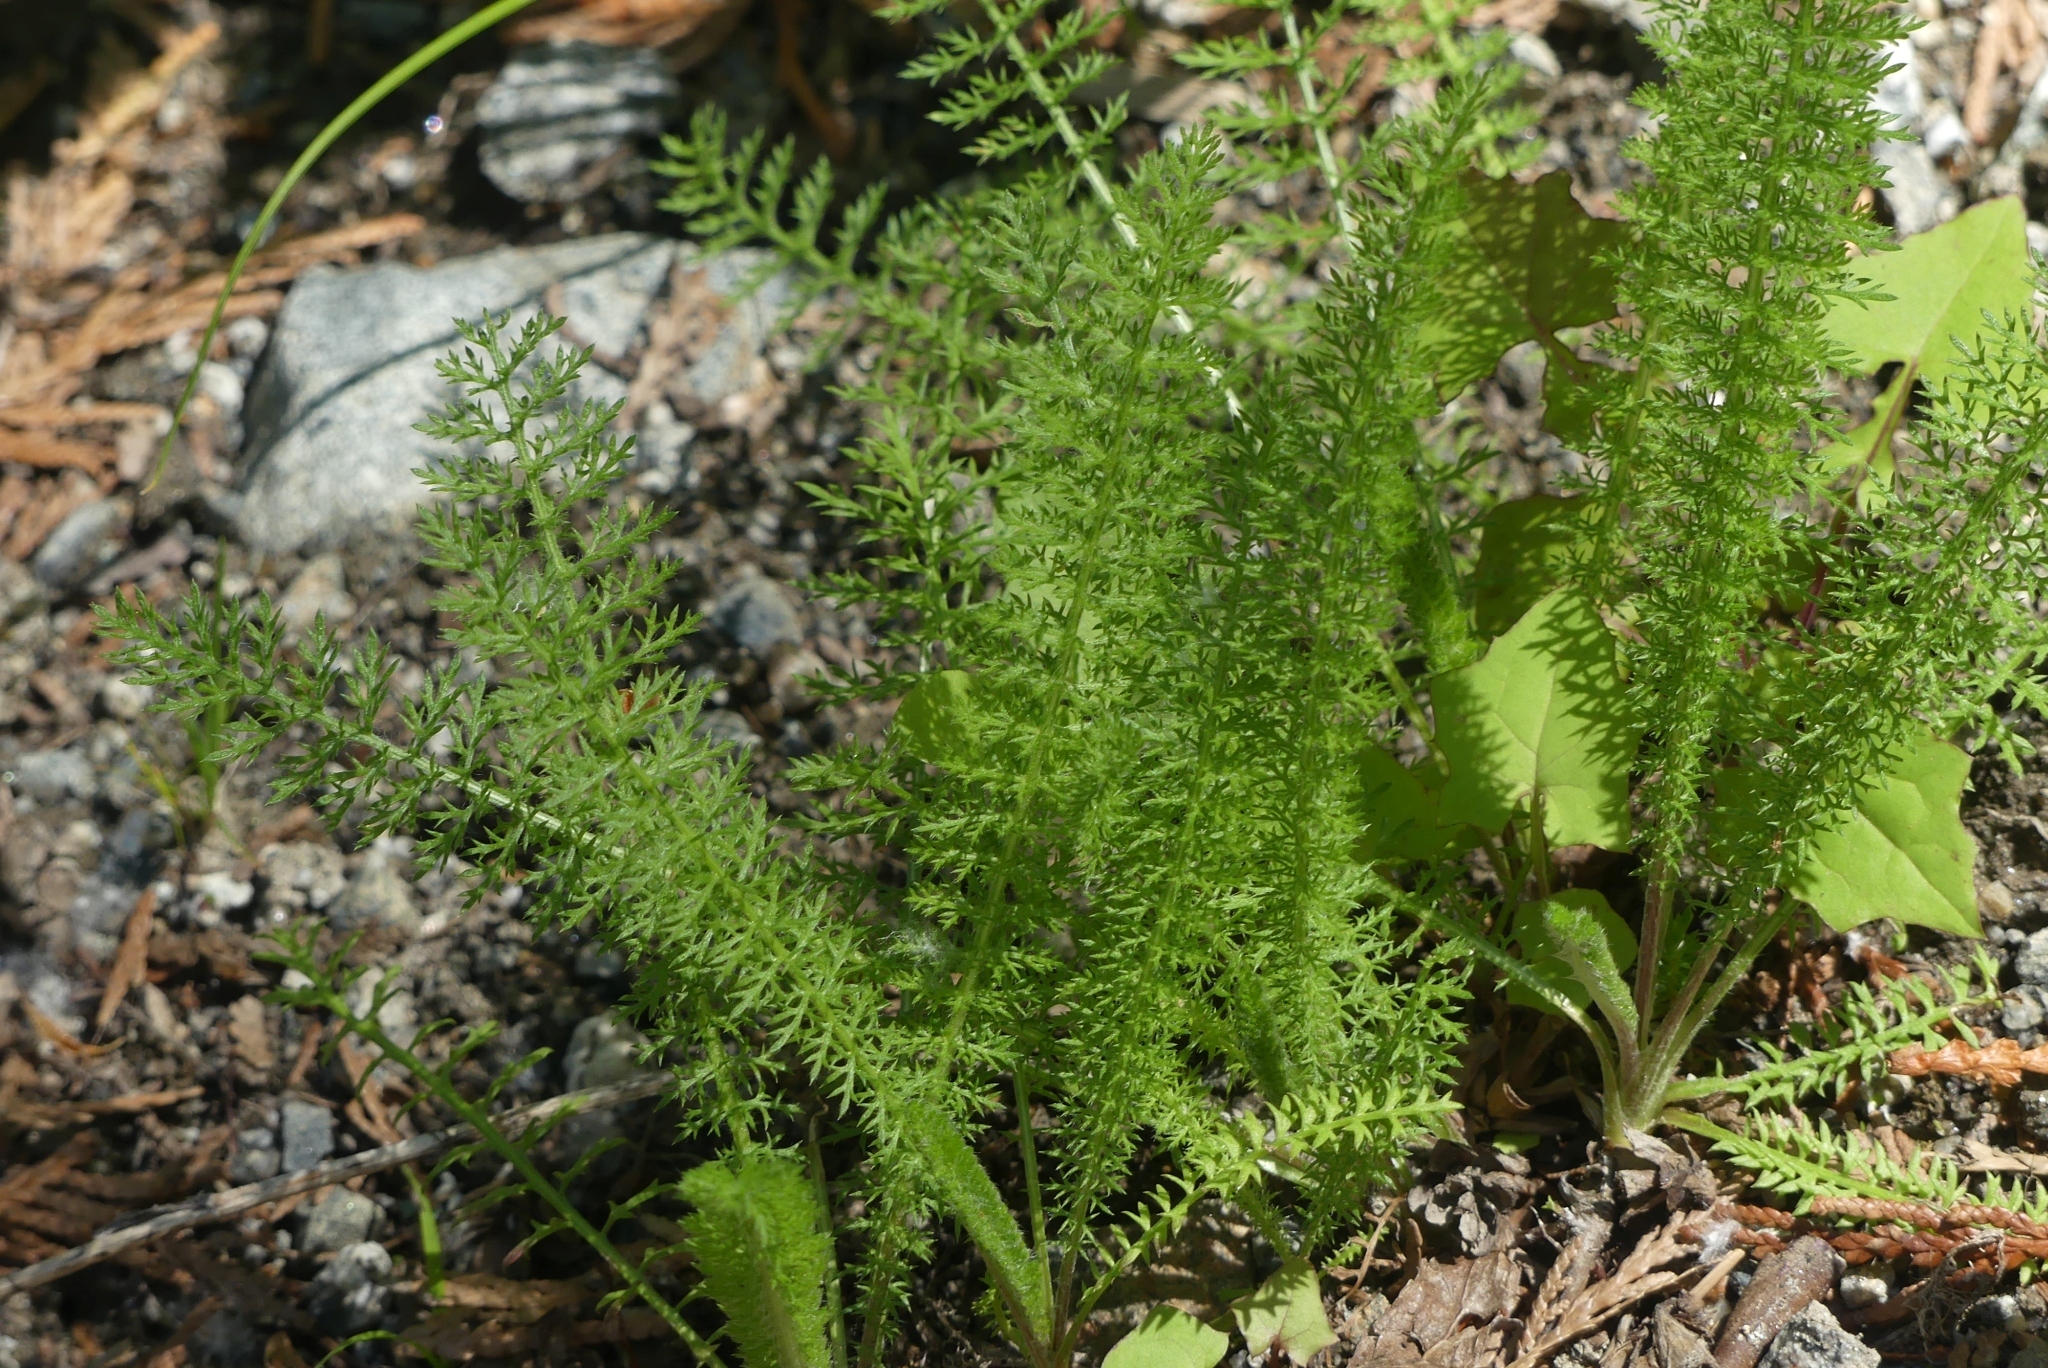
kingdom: Plantae
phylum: Tracheophyta
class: Magnoliopsida
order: Asterales
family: Asteraceae
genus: Achillea
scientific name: Achillea millefolium
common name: Yarrow
